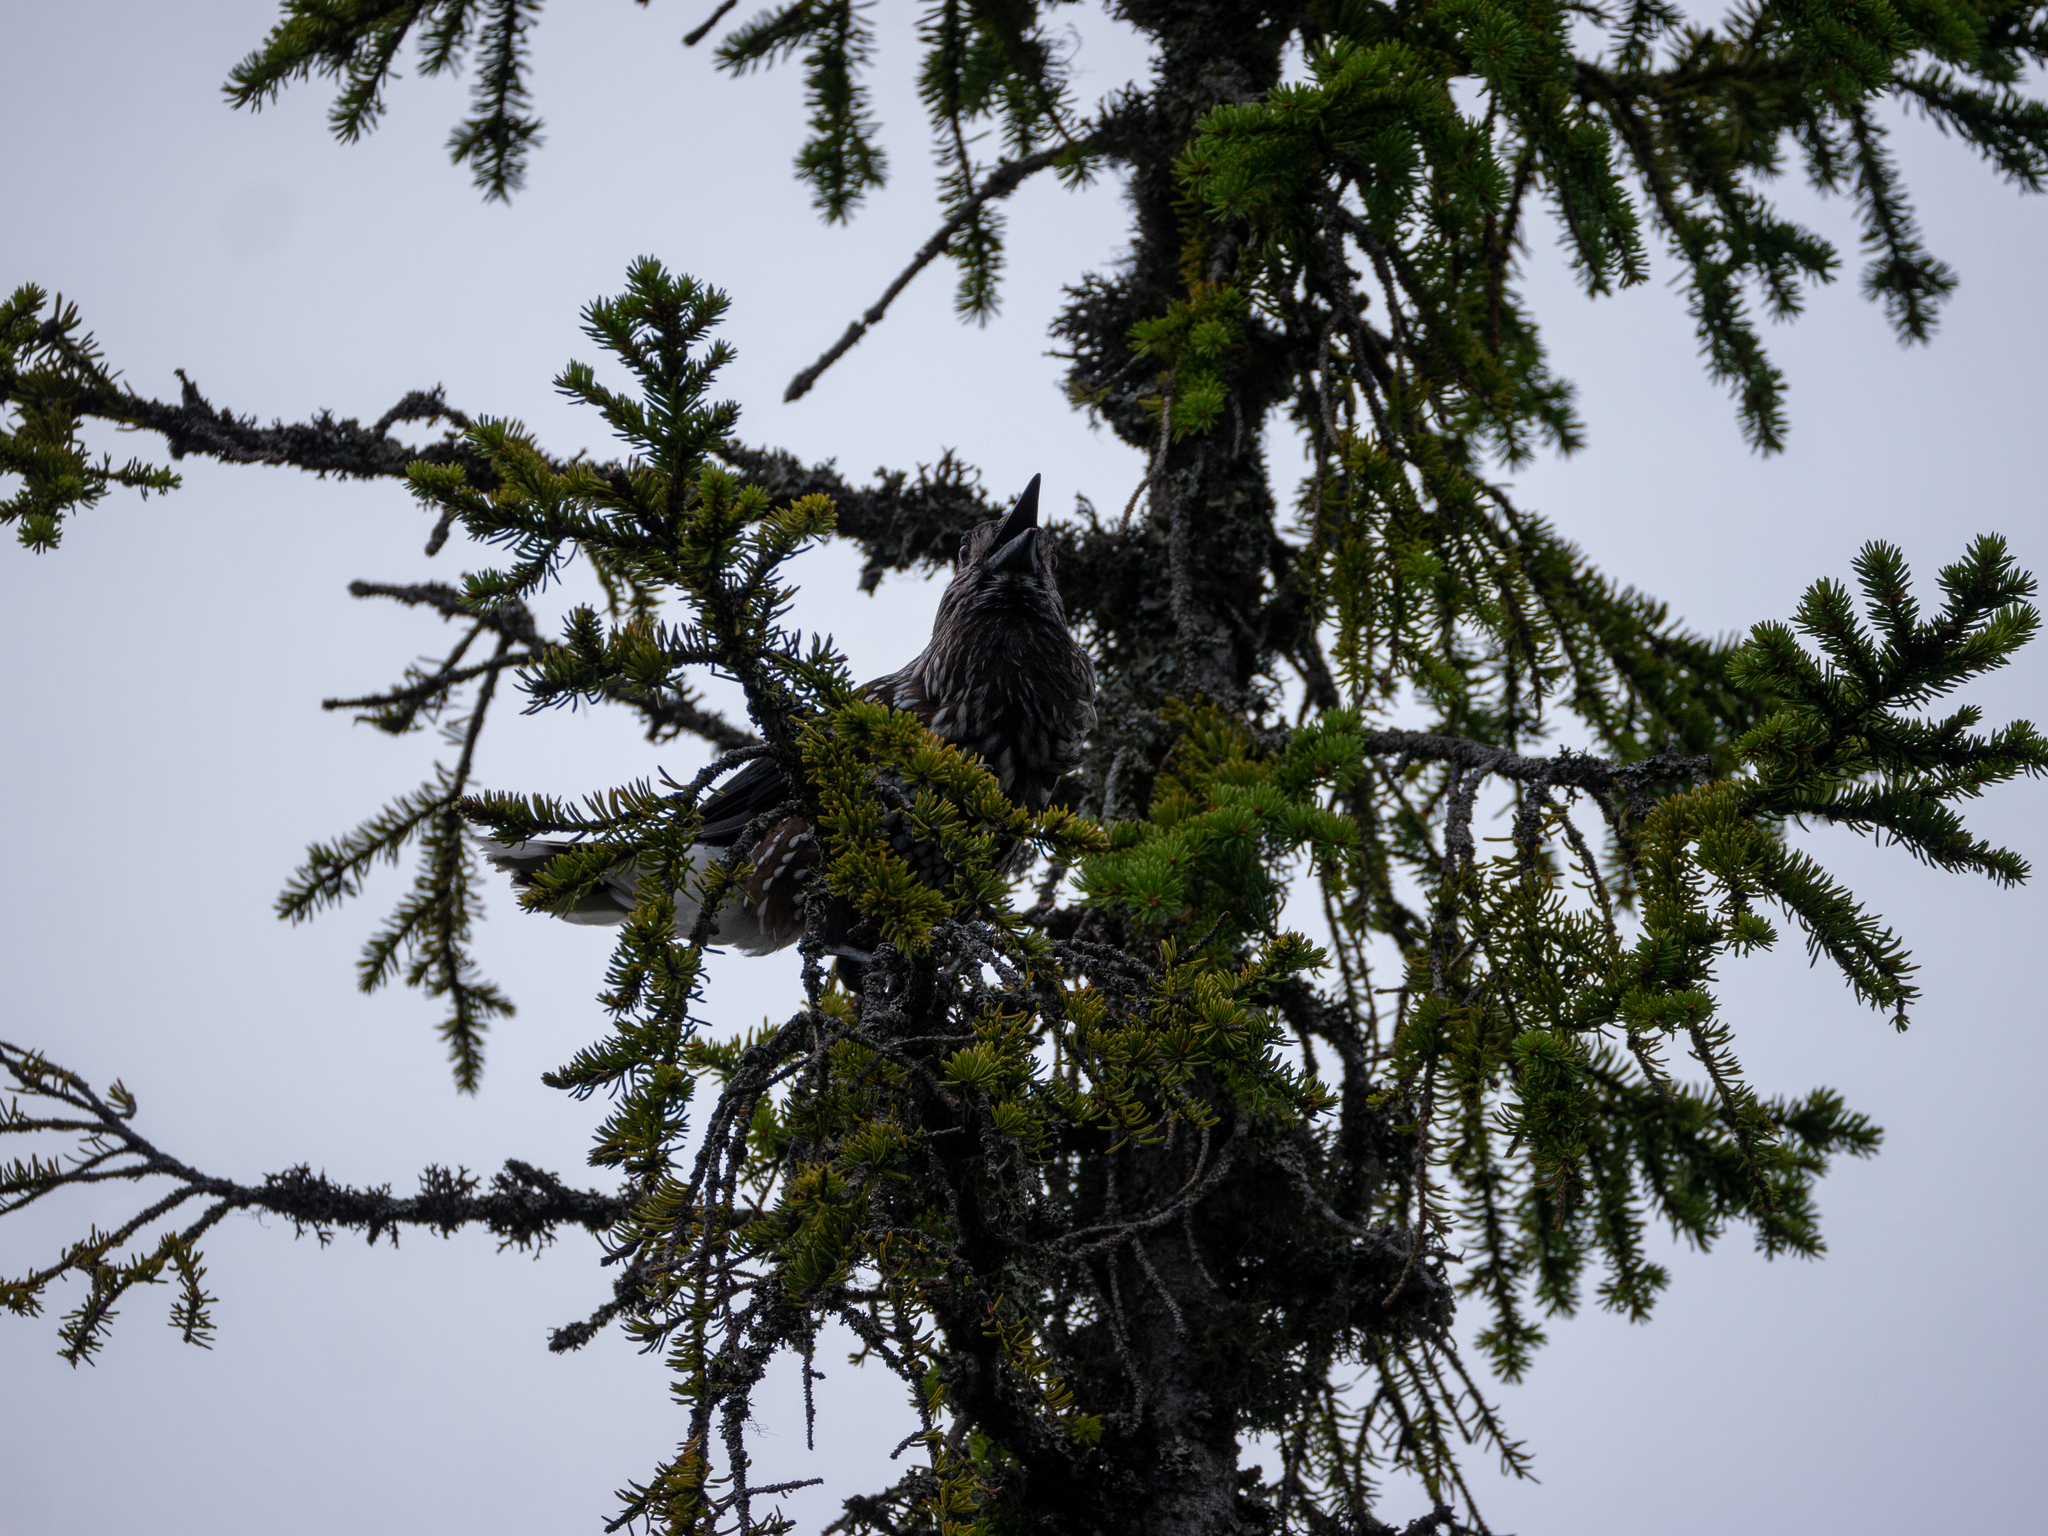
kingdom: Animalia
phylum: Chordata
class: Aves
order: Passeriformes
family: Corvidae
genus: Nucifraga
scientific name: Nucifraga caryocatactes
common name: Spotted nutcracker
